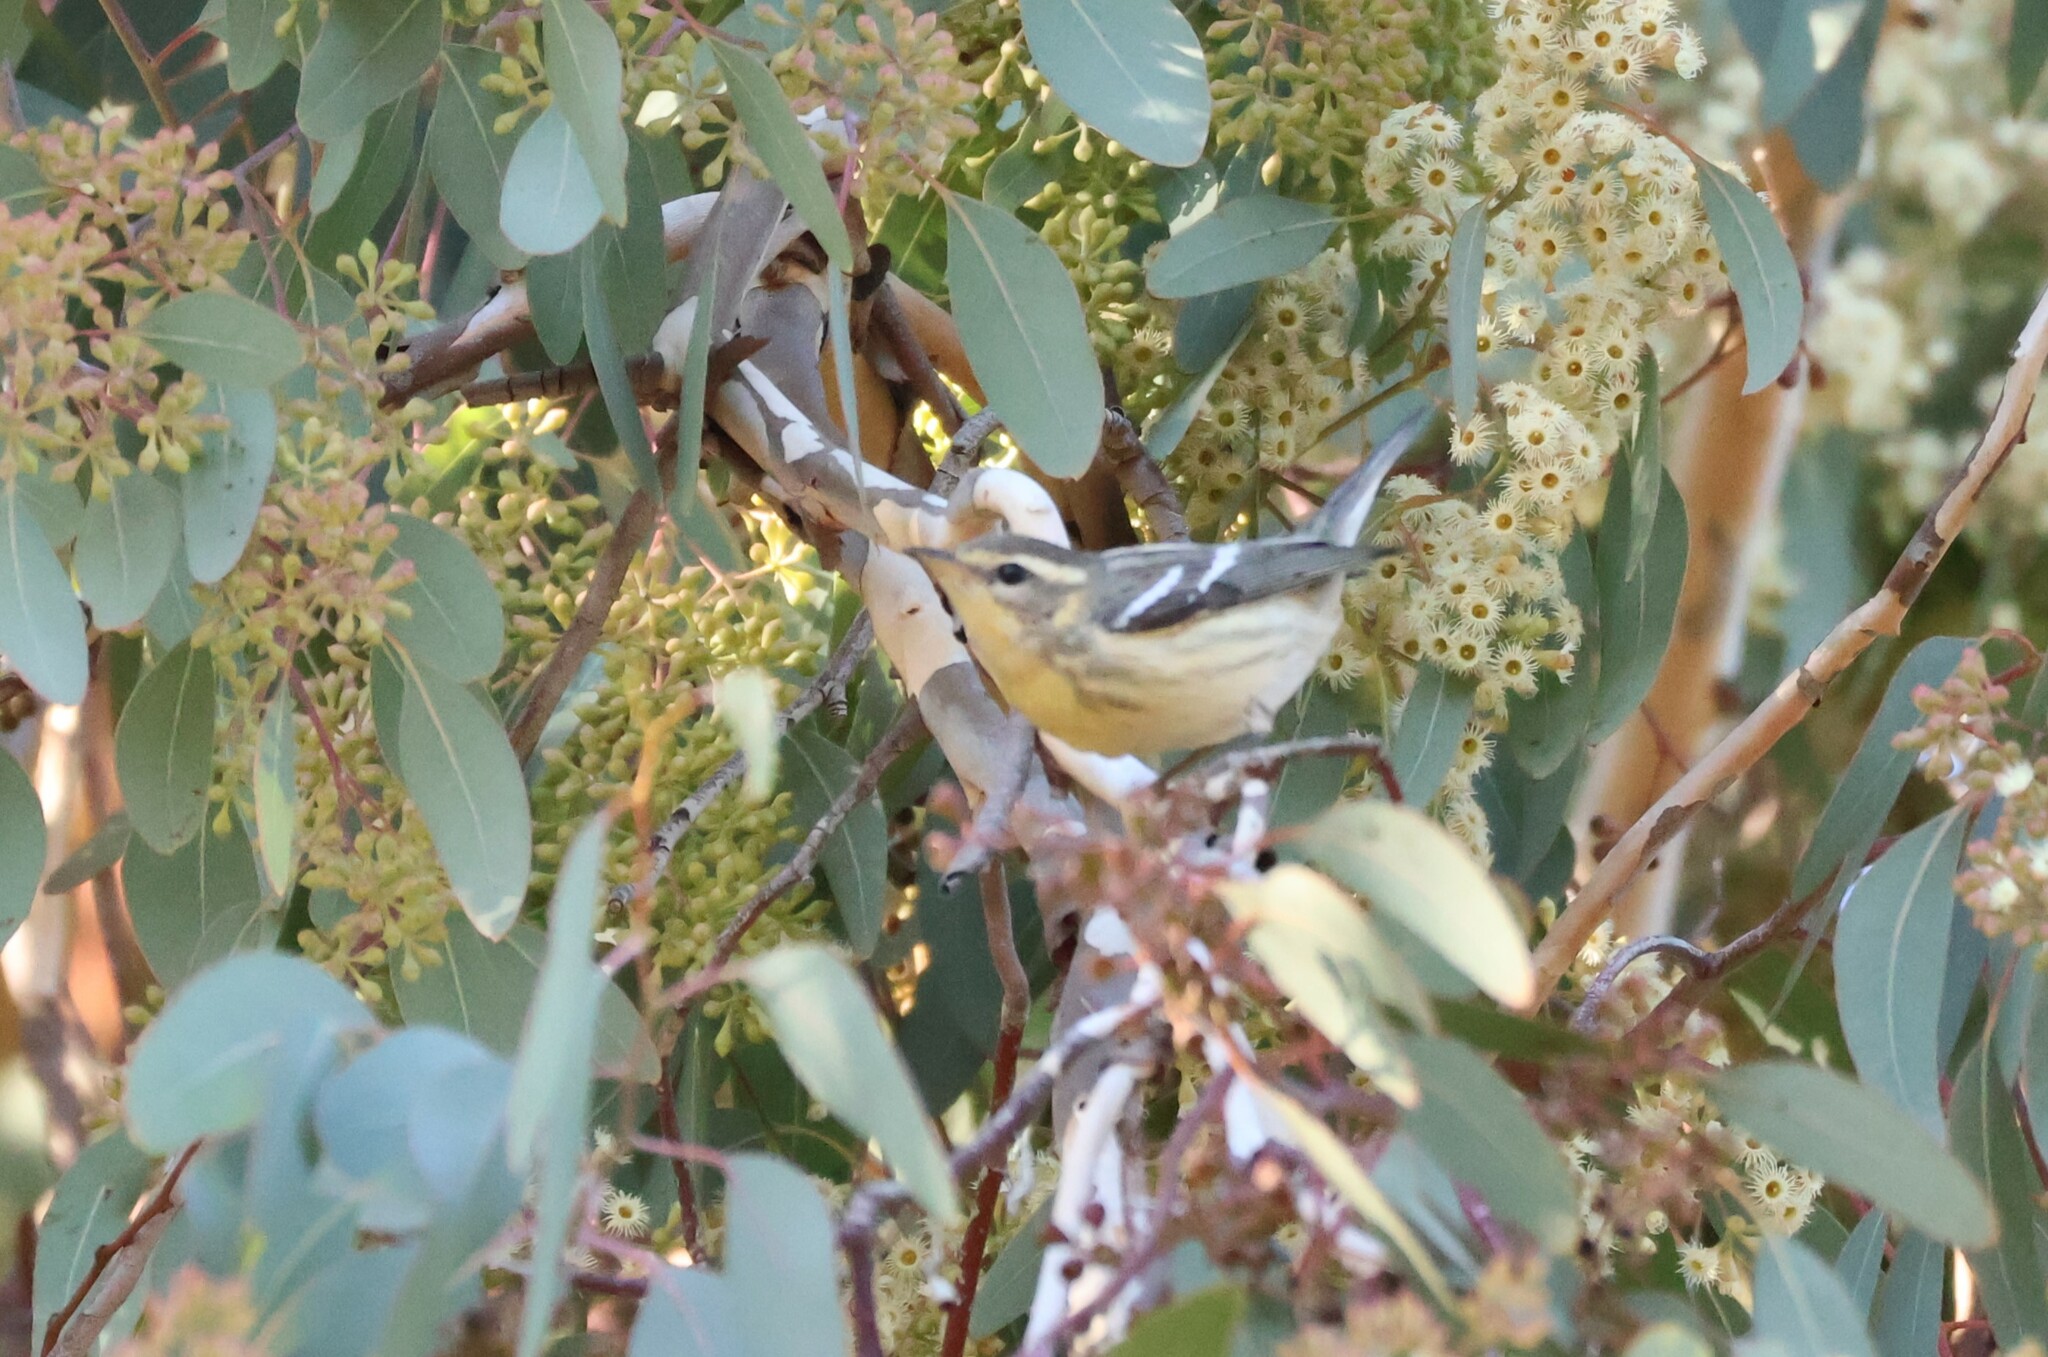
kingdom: Animalia
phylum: Chordata
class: Aves
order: Passeriformes
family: Parulidae
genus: Setophaga
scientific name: Setophaga fusca
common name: Blackburnian warbler
